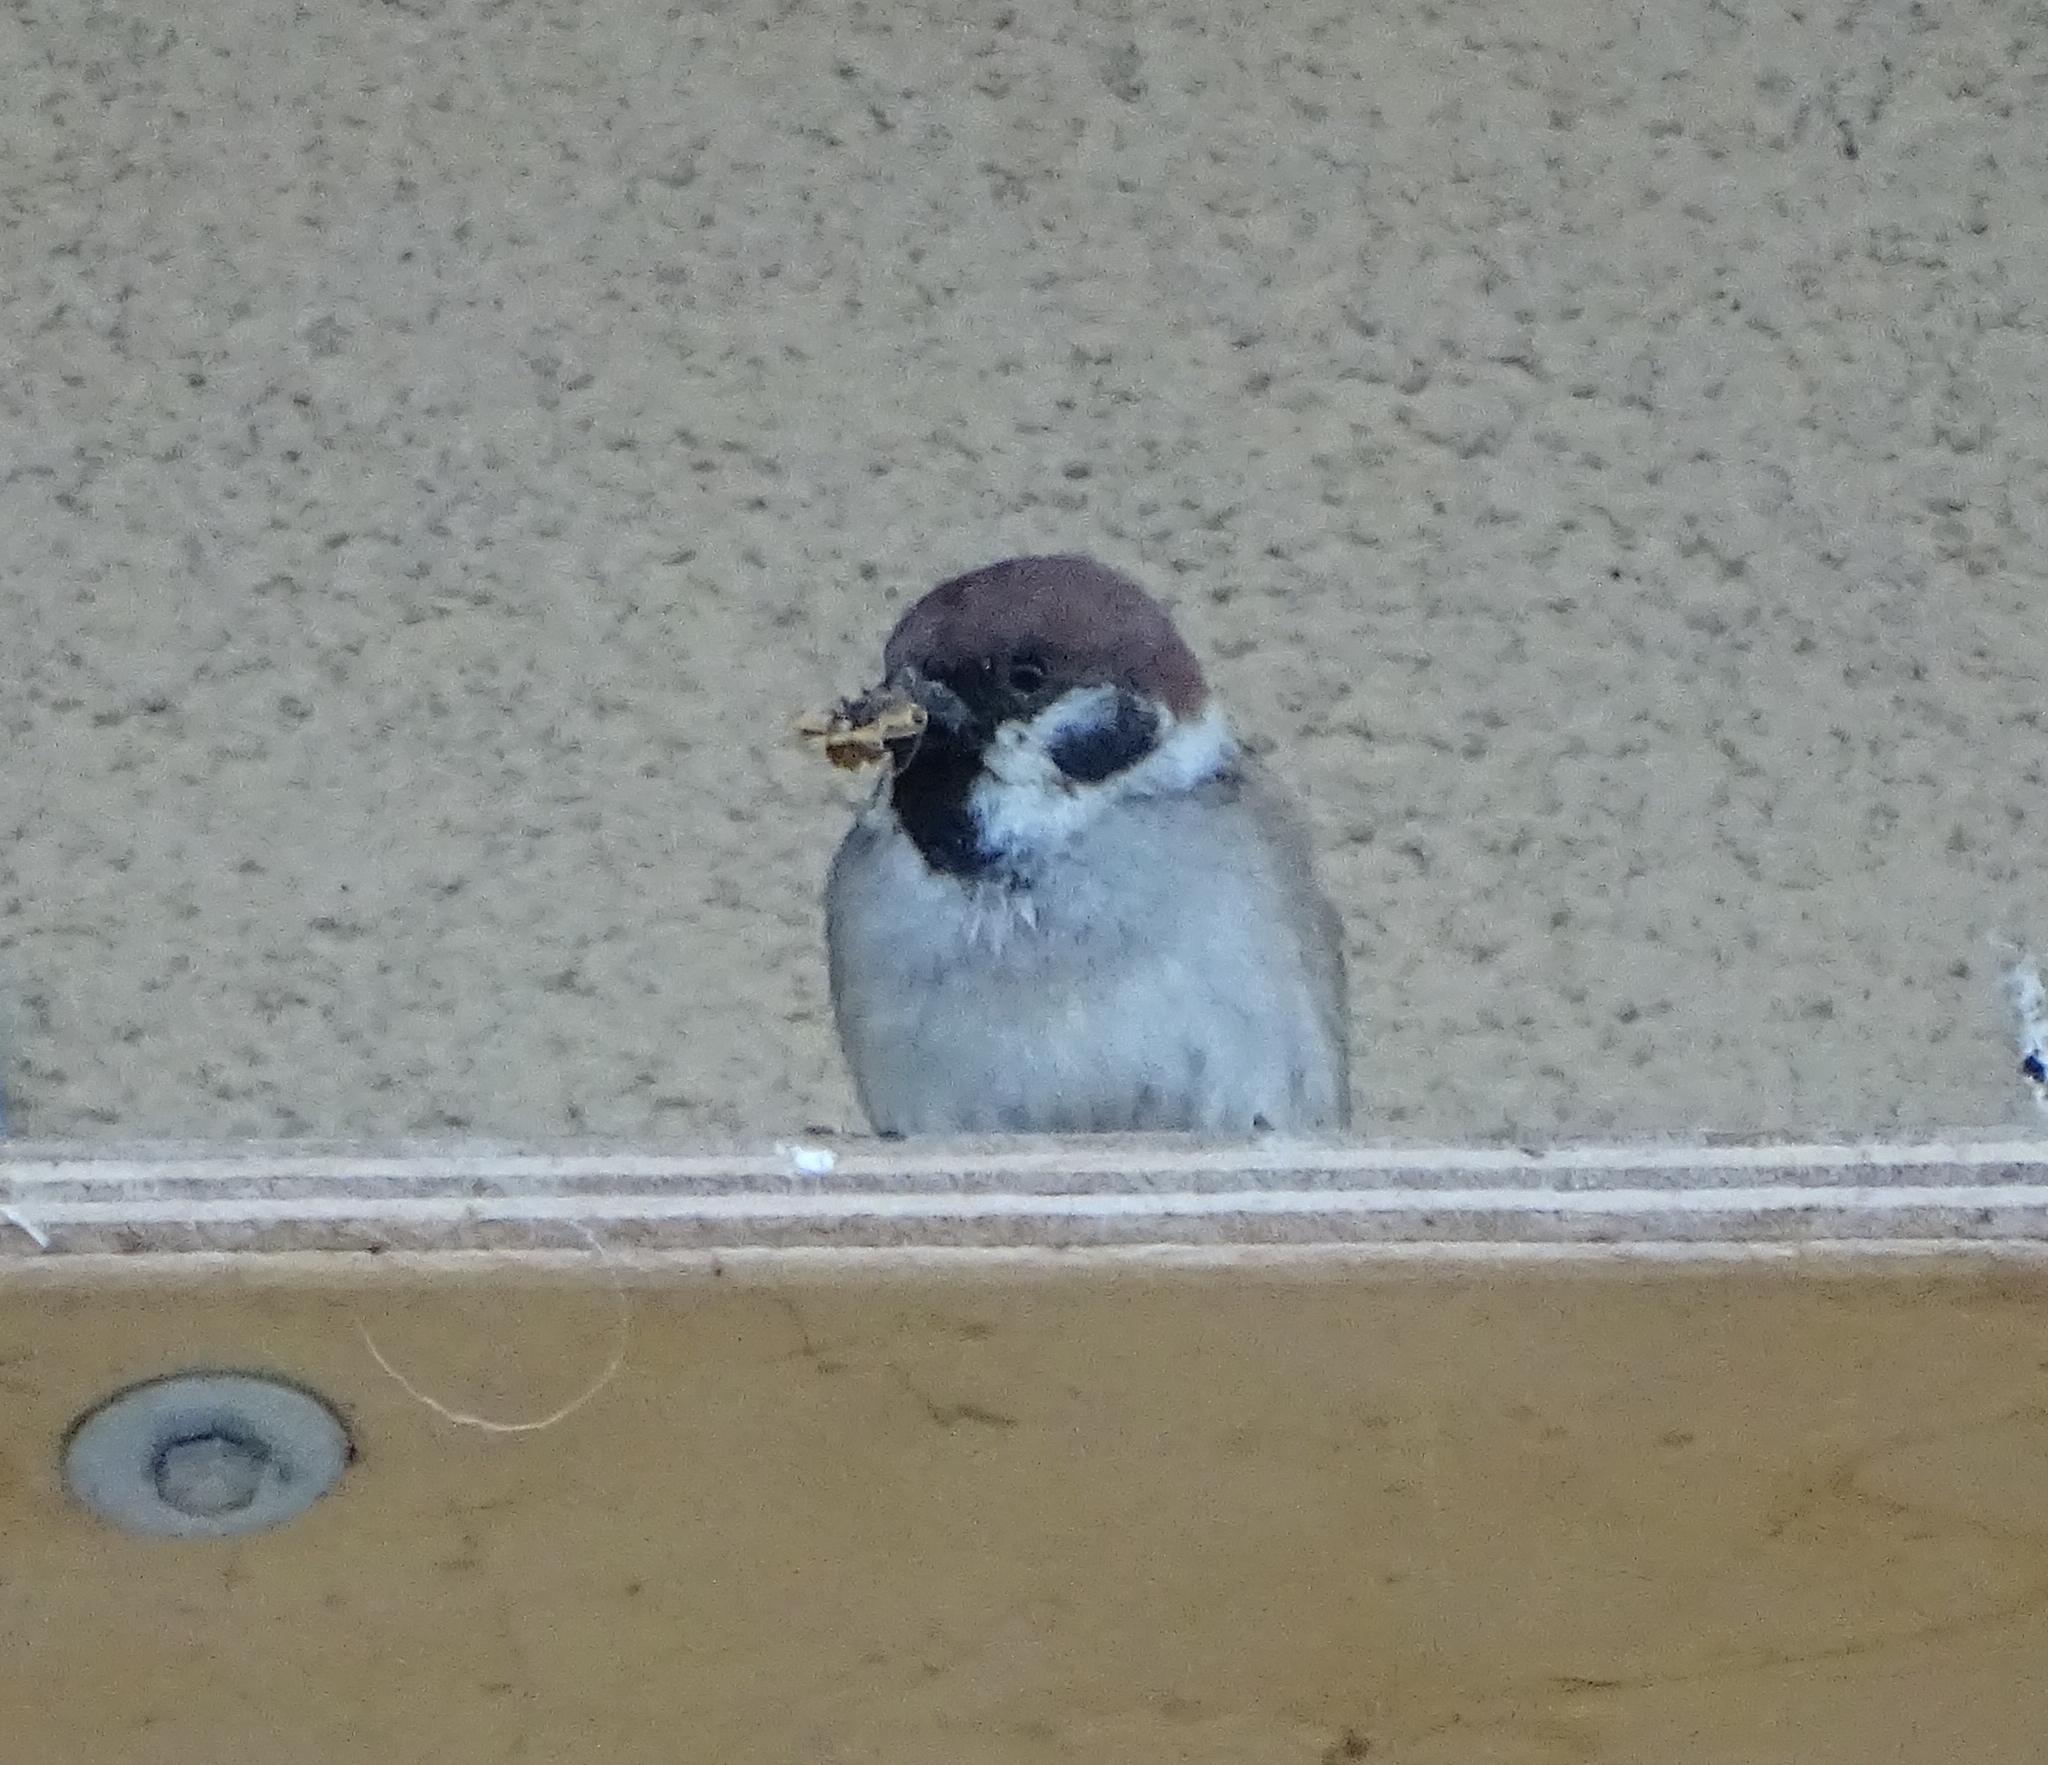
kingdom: Animalia
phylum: Chordata
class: Aves
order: Passeriformes
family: Passeridae
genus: Passer
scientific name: Passer montanus
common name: Eurasian tree sparrow
